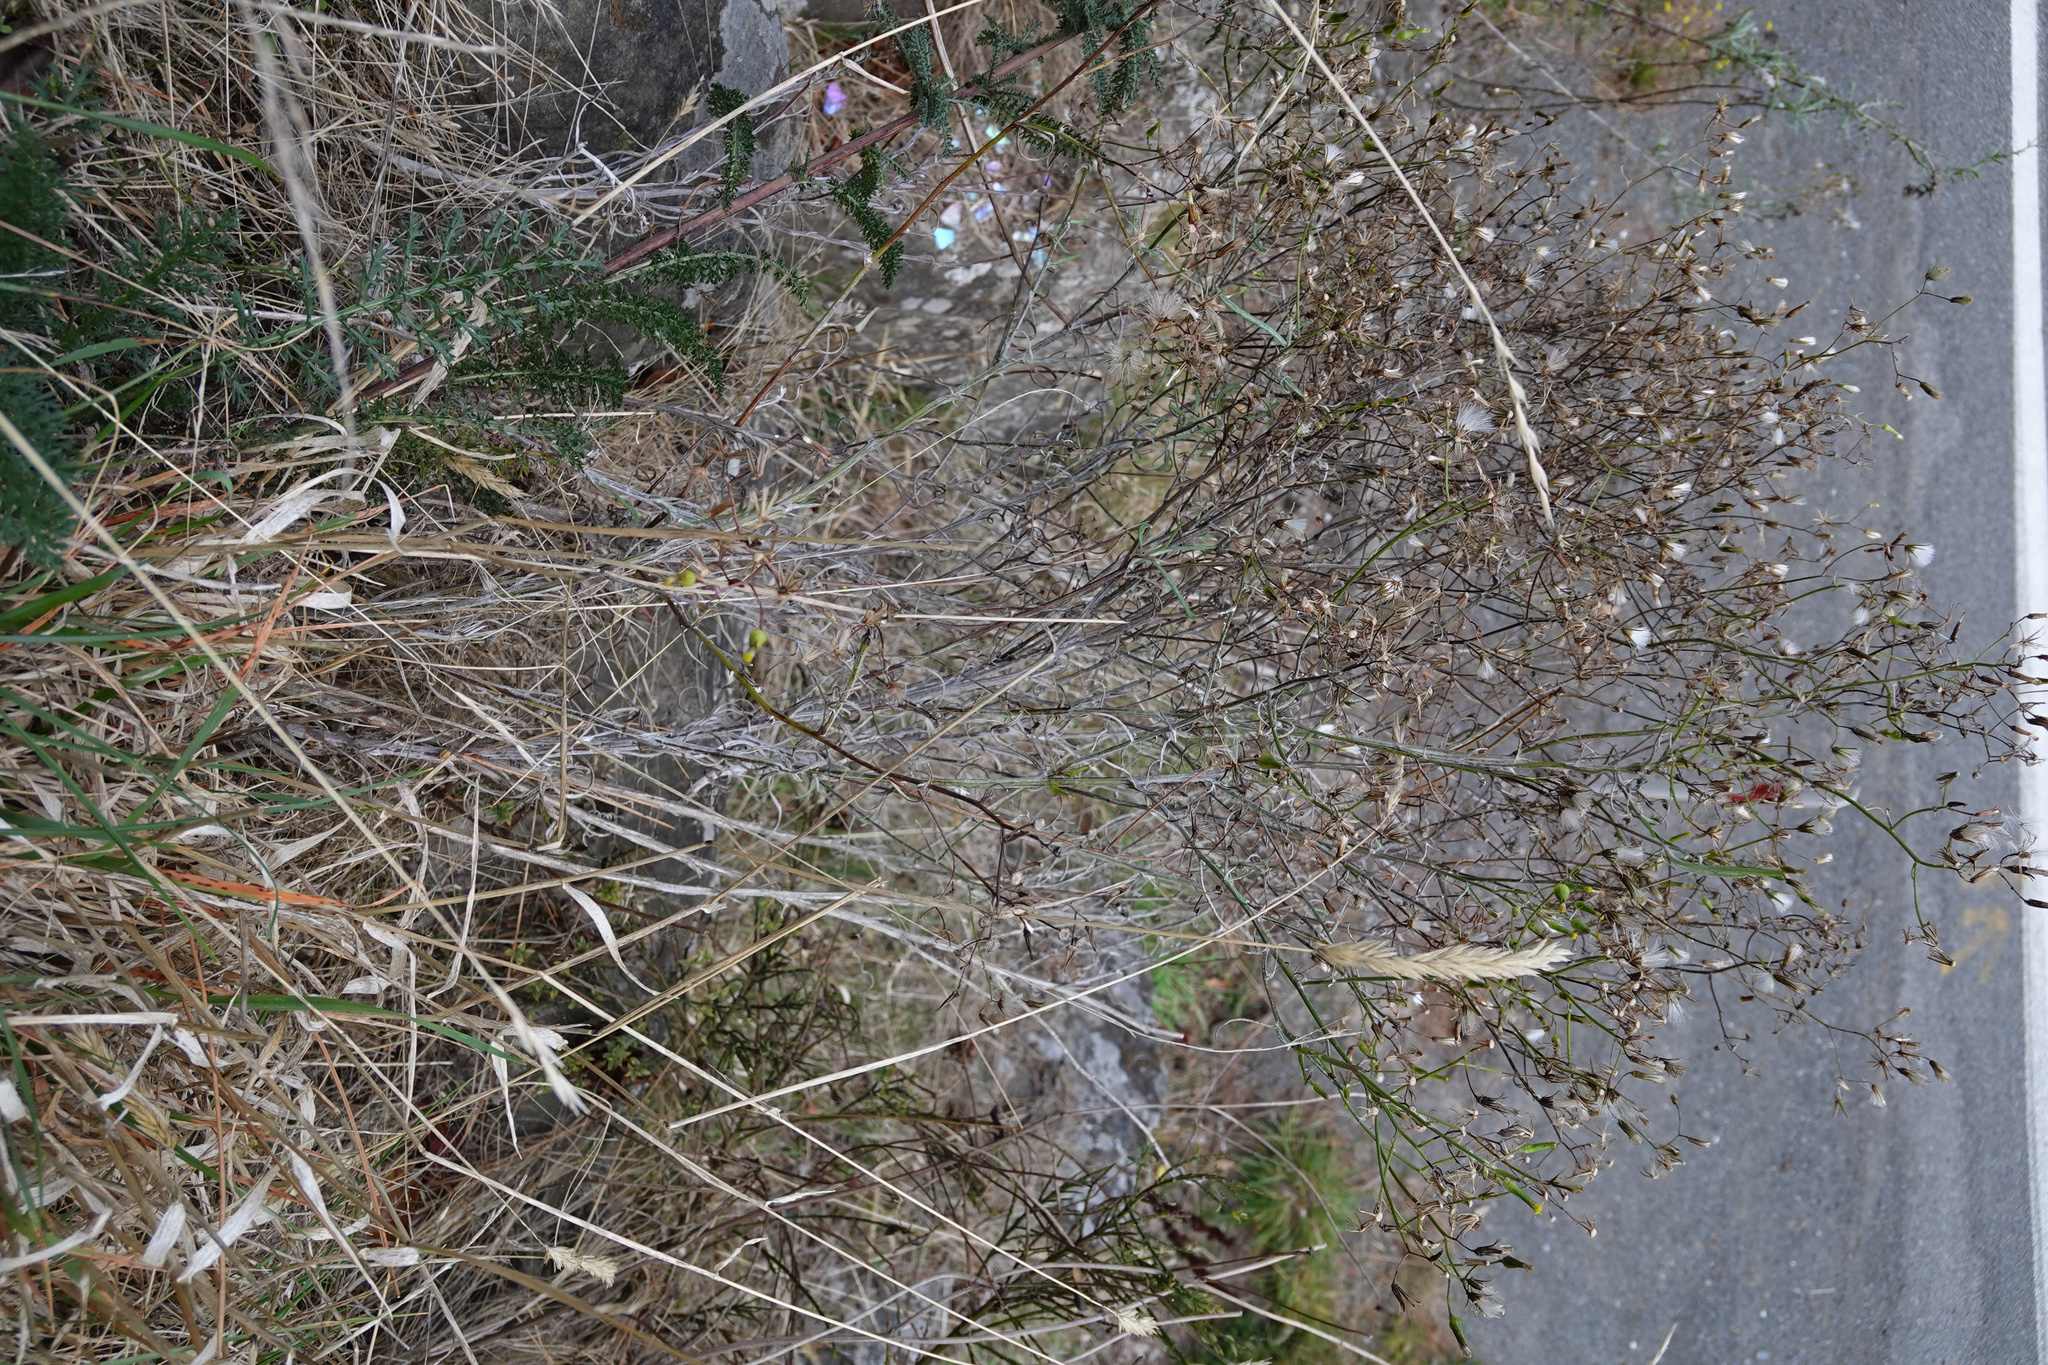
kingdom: Plantae
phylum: Tracheophyta
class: Magnoliopsida
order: Asterales
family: Asteraceae
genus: Senecio
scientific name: Senecio quadridentatus
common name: Cotton fireweed
